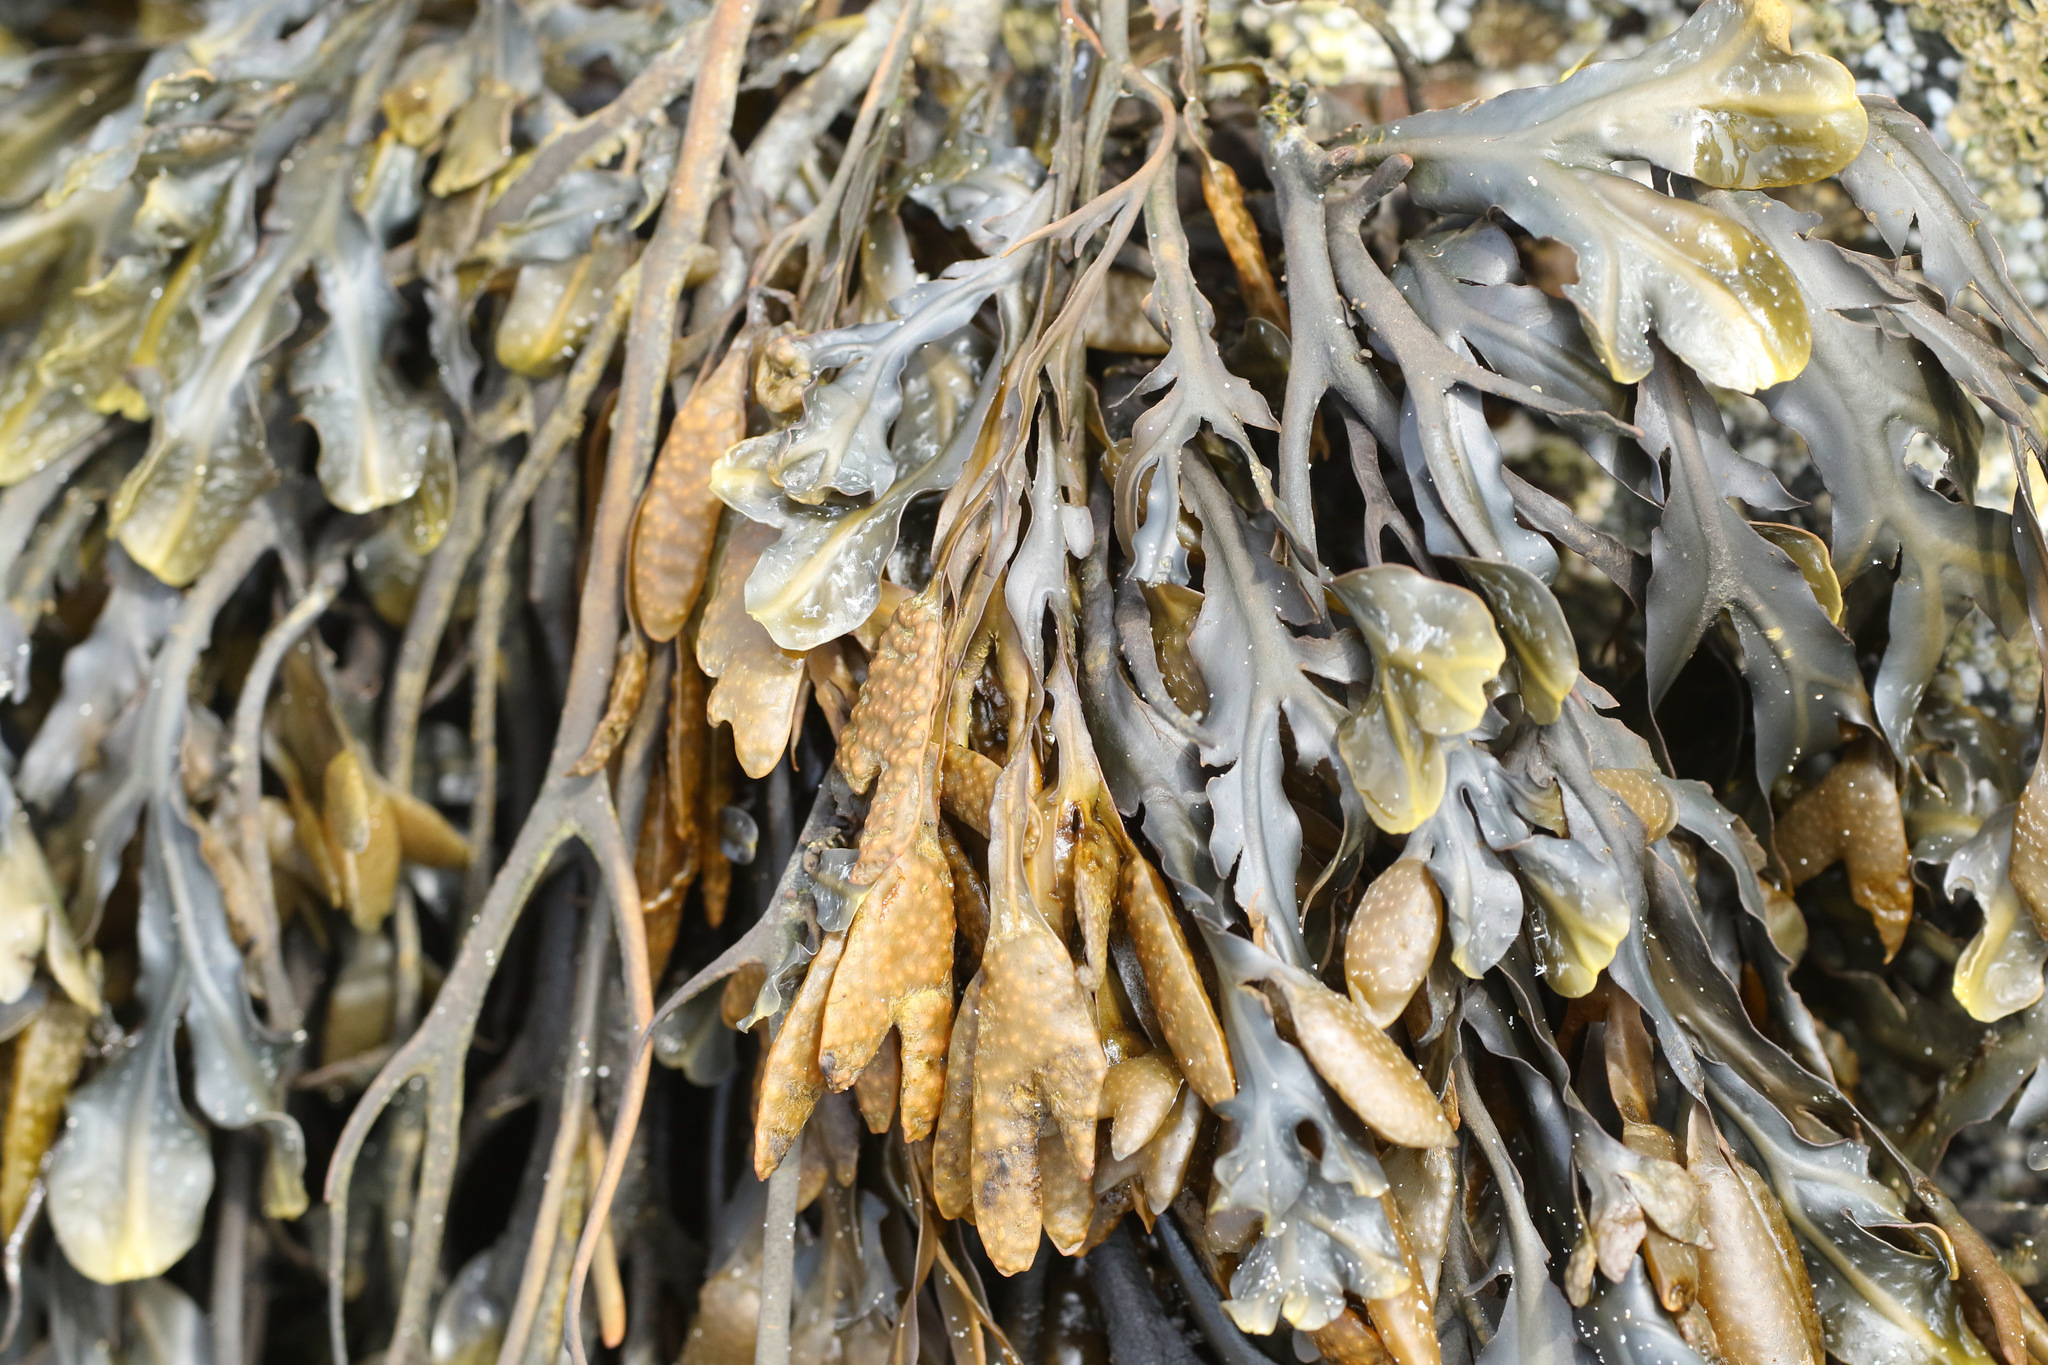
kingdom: Chromista
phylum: Ochrophyta
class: Phaeophyceae
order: Fucales
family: Fucaceae
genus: Fucus
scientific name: Fucus vesiculosus
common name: Bladder wrack
